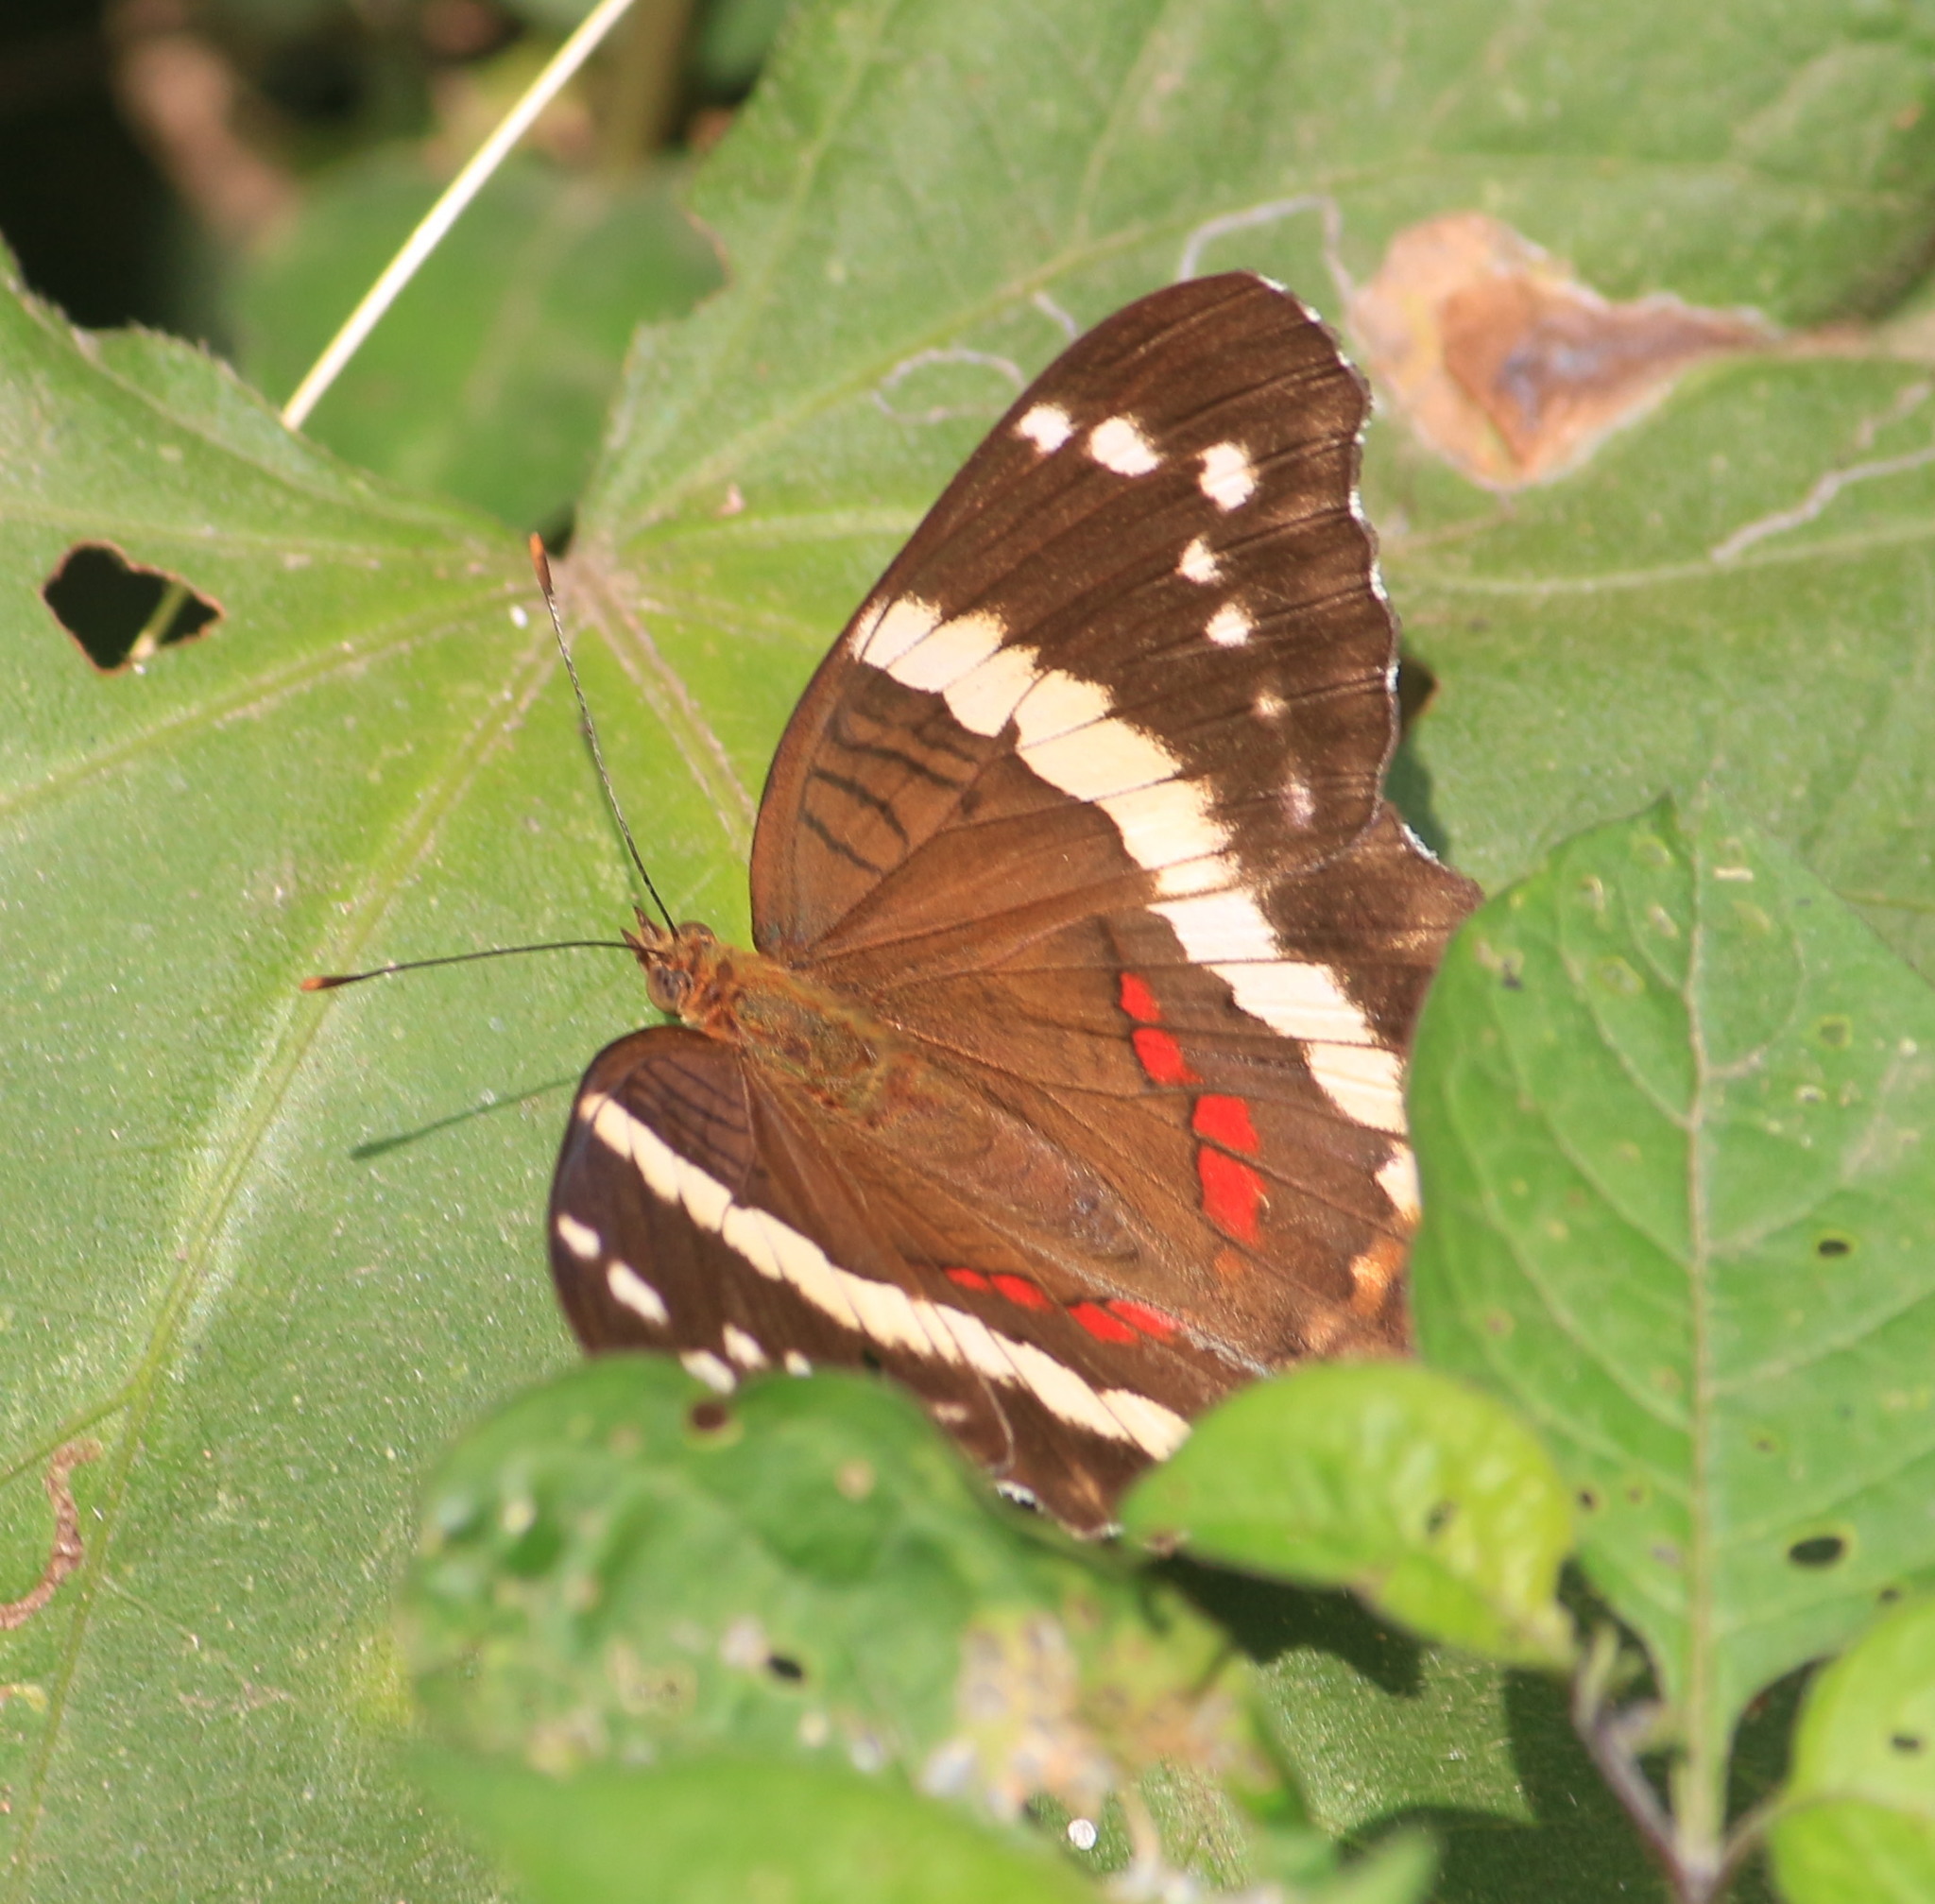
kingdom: Animalia
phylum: Arthropoda
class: Insecta
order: Lepidoptera
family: Nymphalidae
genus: Anartia
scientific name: Anartia fatima
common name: Banded peacock
